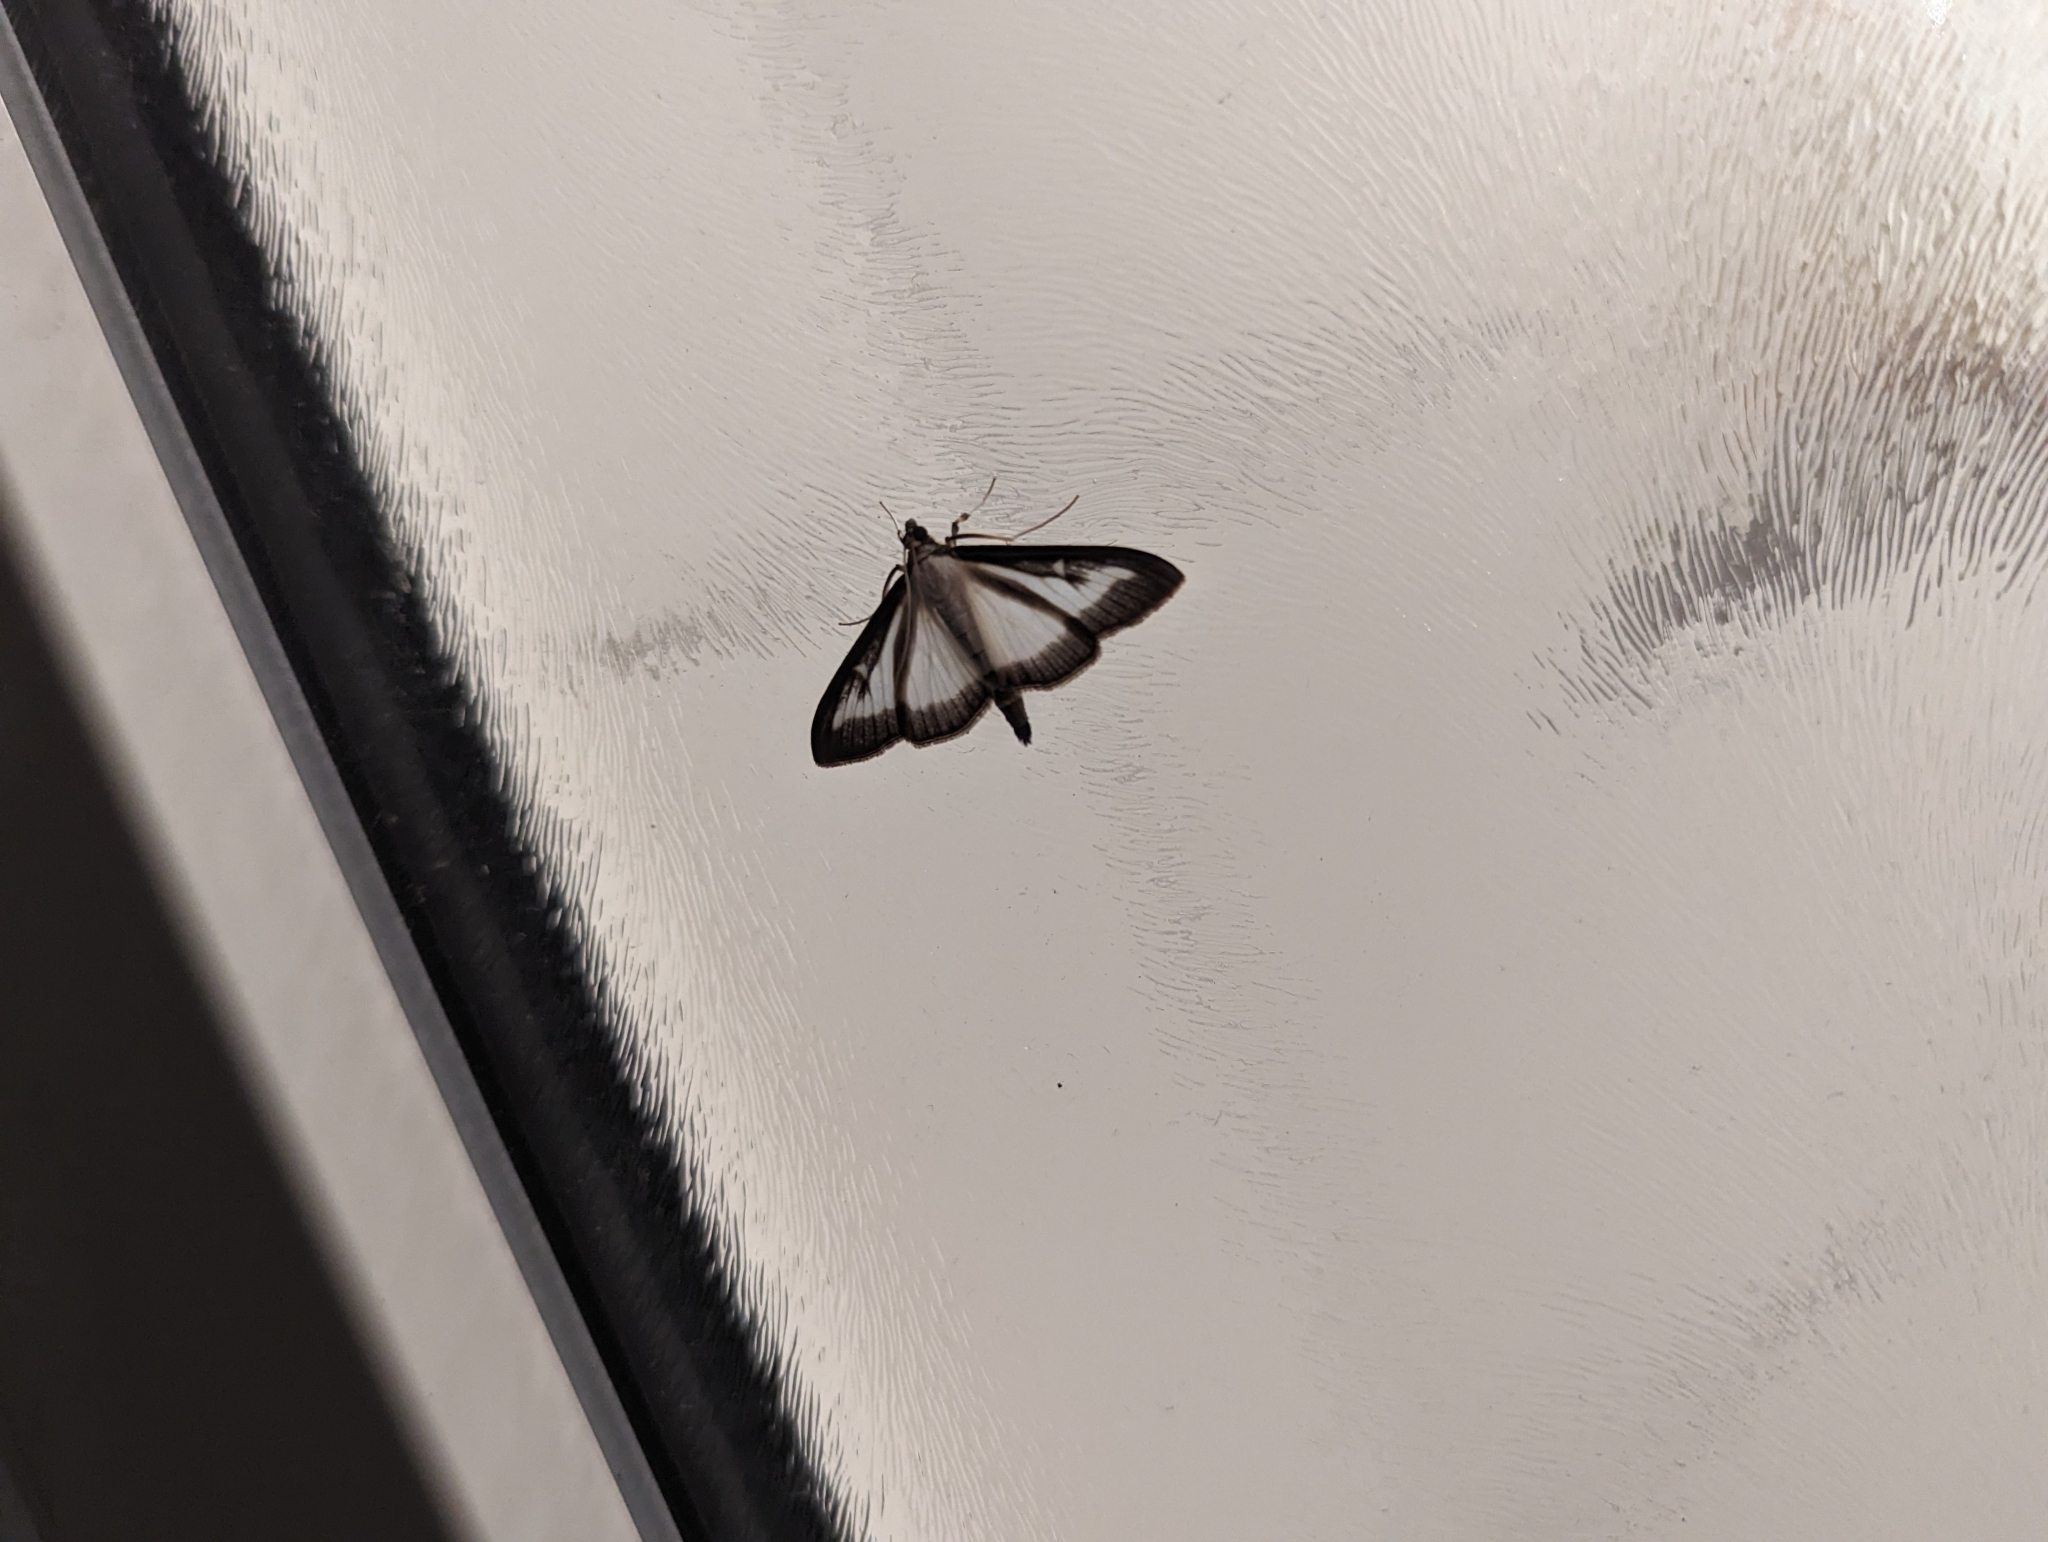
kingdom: Animalia
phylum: Arthropoda
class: Insecta
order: Lepidoptera
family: Crambidae
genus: Cydalima
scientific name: Cydalima perspectalis
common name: Box tree moth
